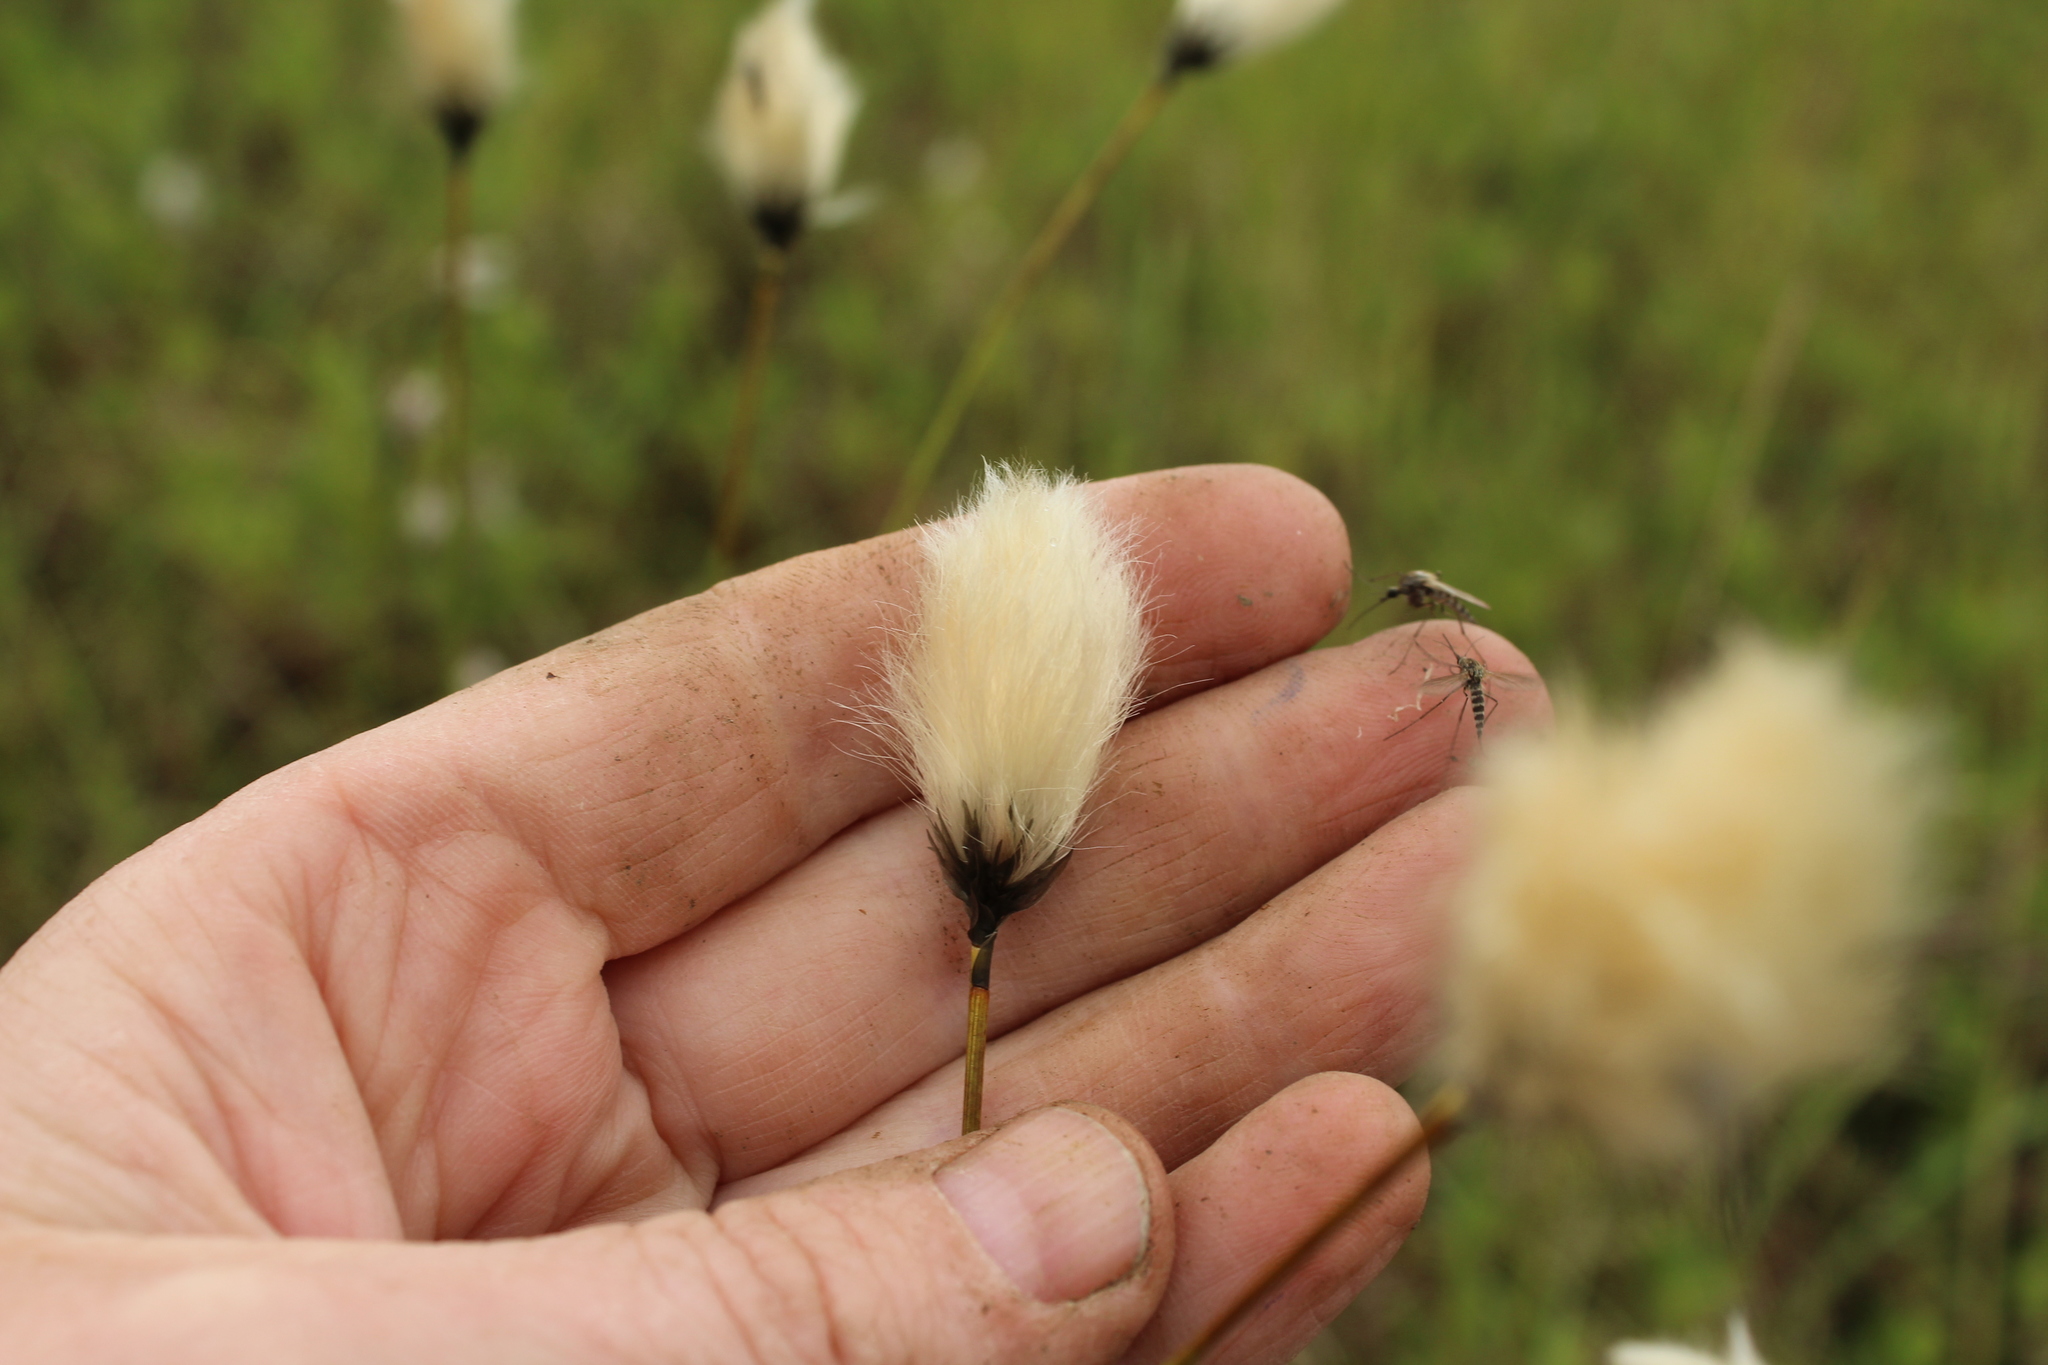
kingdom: Plantae
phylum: Tracheophyta
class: Liliopsida
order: Poales
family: Cyperaceae
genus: Eriophorum
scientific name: Eriophorum brachyantherum
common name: Closed-sheathed cottongrass
